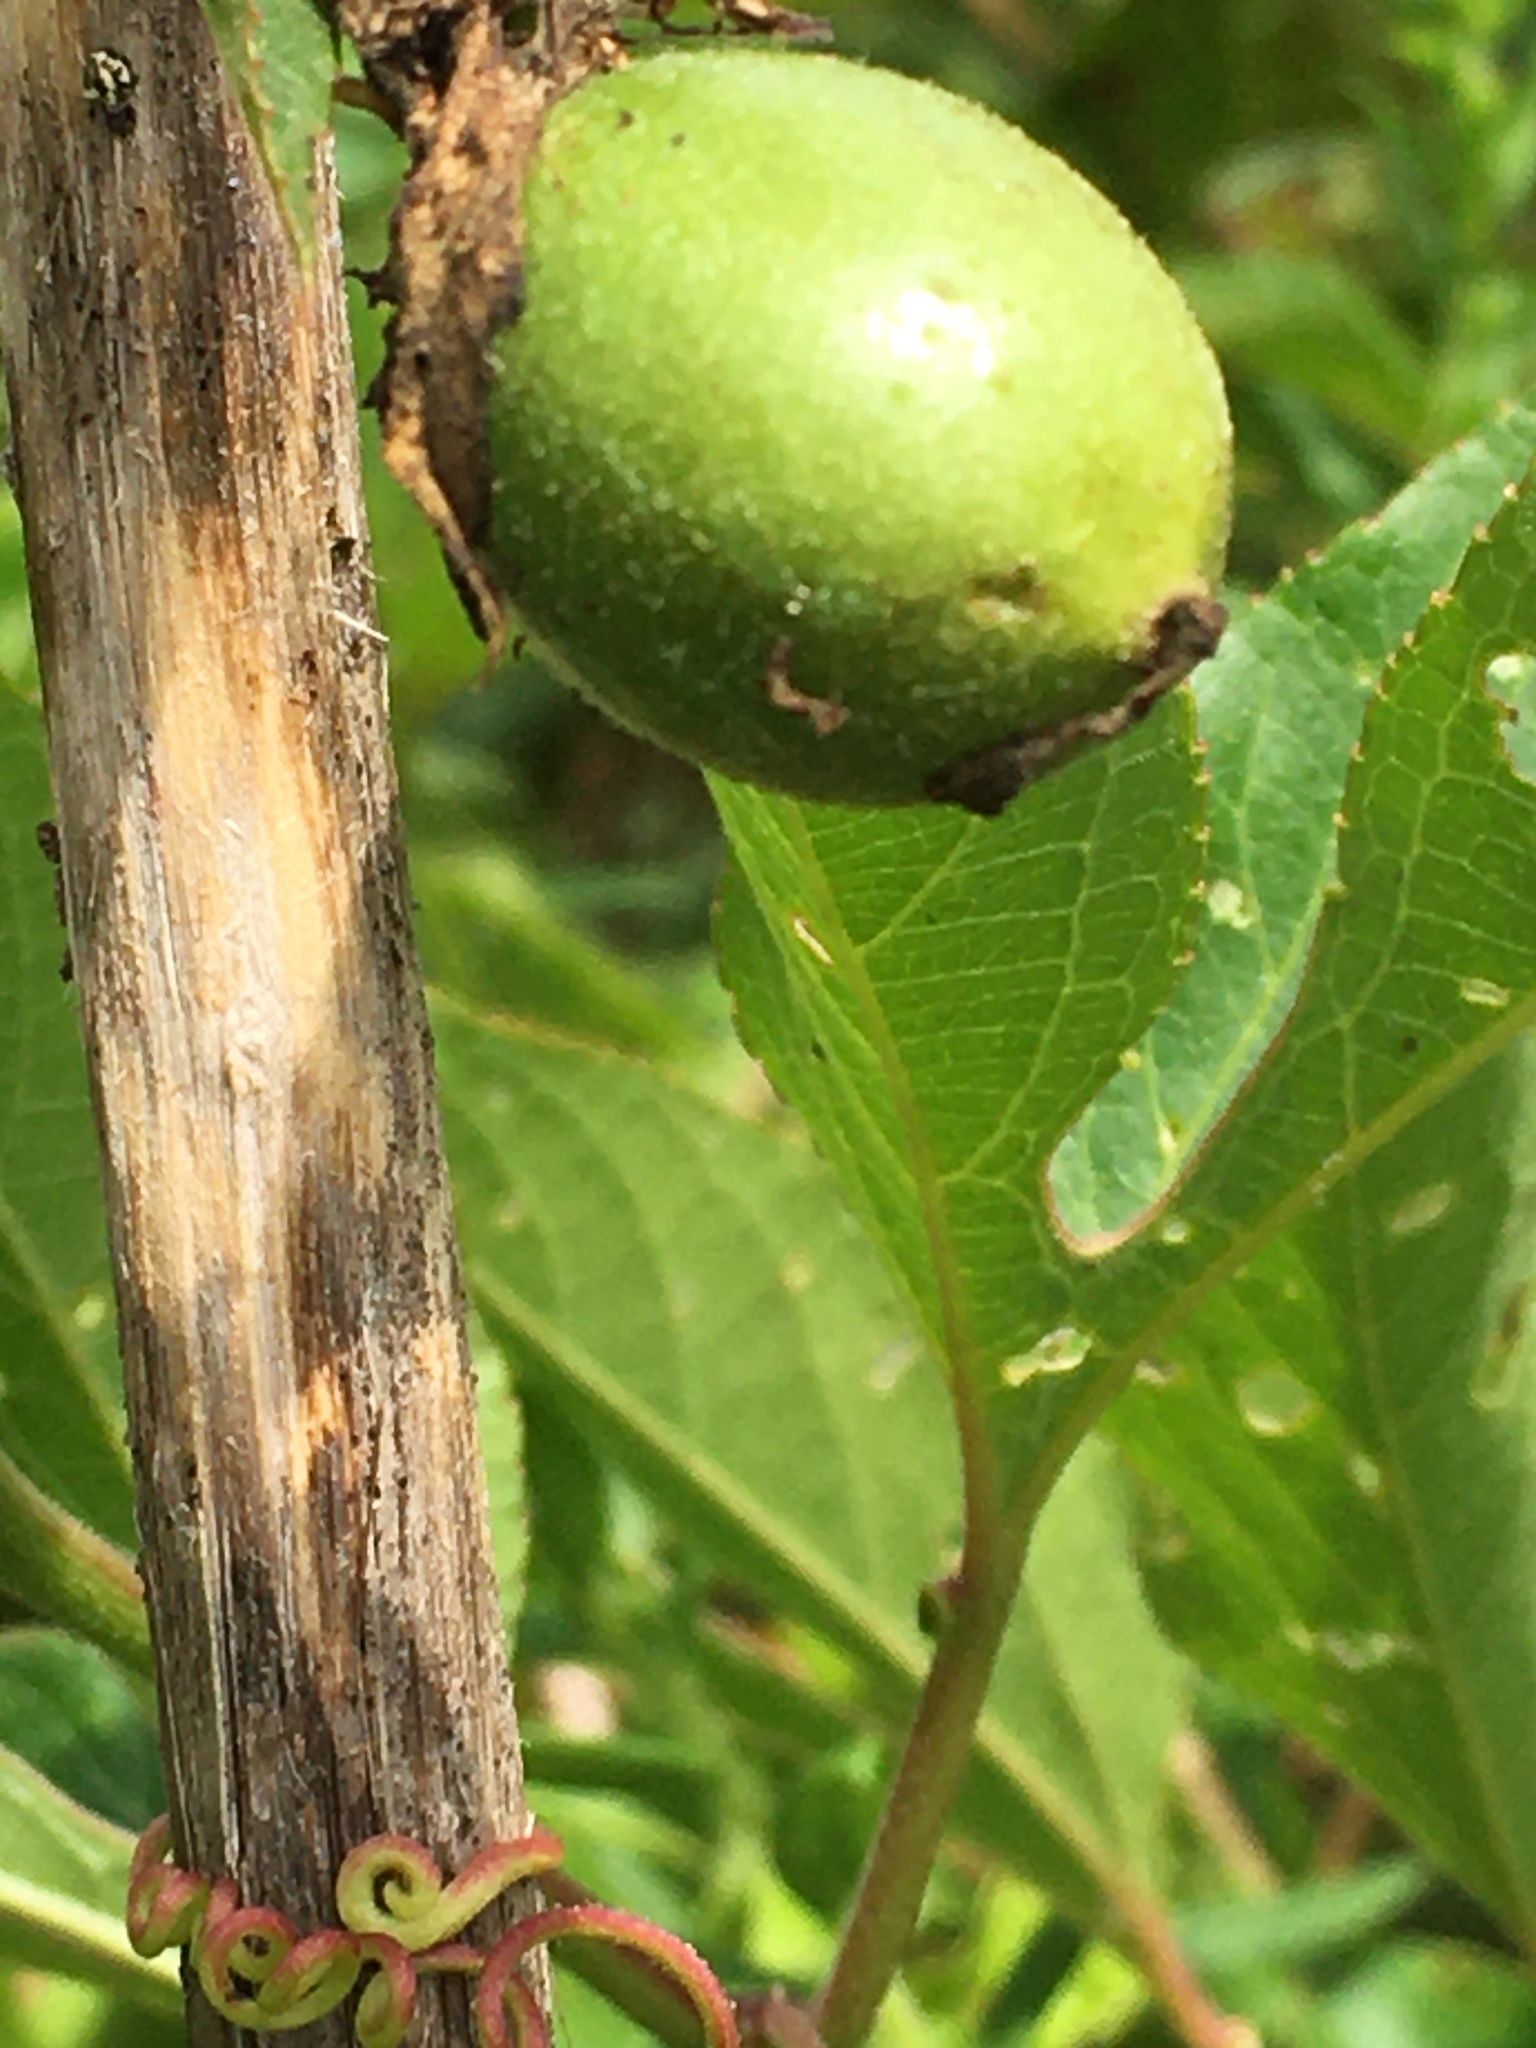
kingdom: Plantae
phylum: Tracheophyta
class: Magnoliopsida
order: Malpighiales
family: Passifloraceae
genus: Passiflora
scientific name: Passiflora incarnata
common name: Apricot-vine
